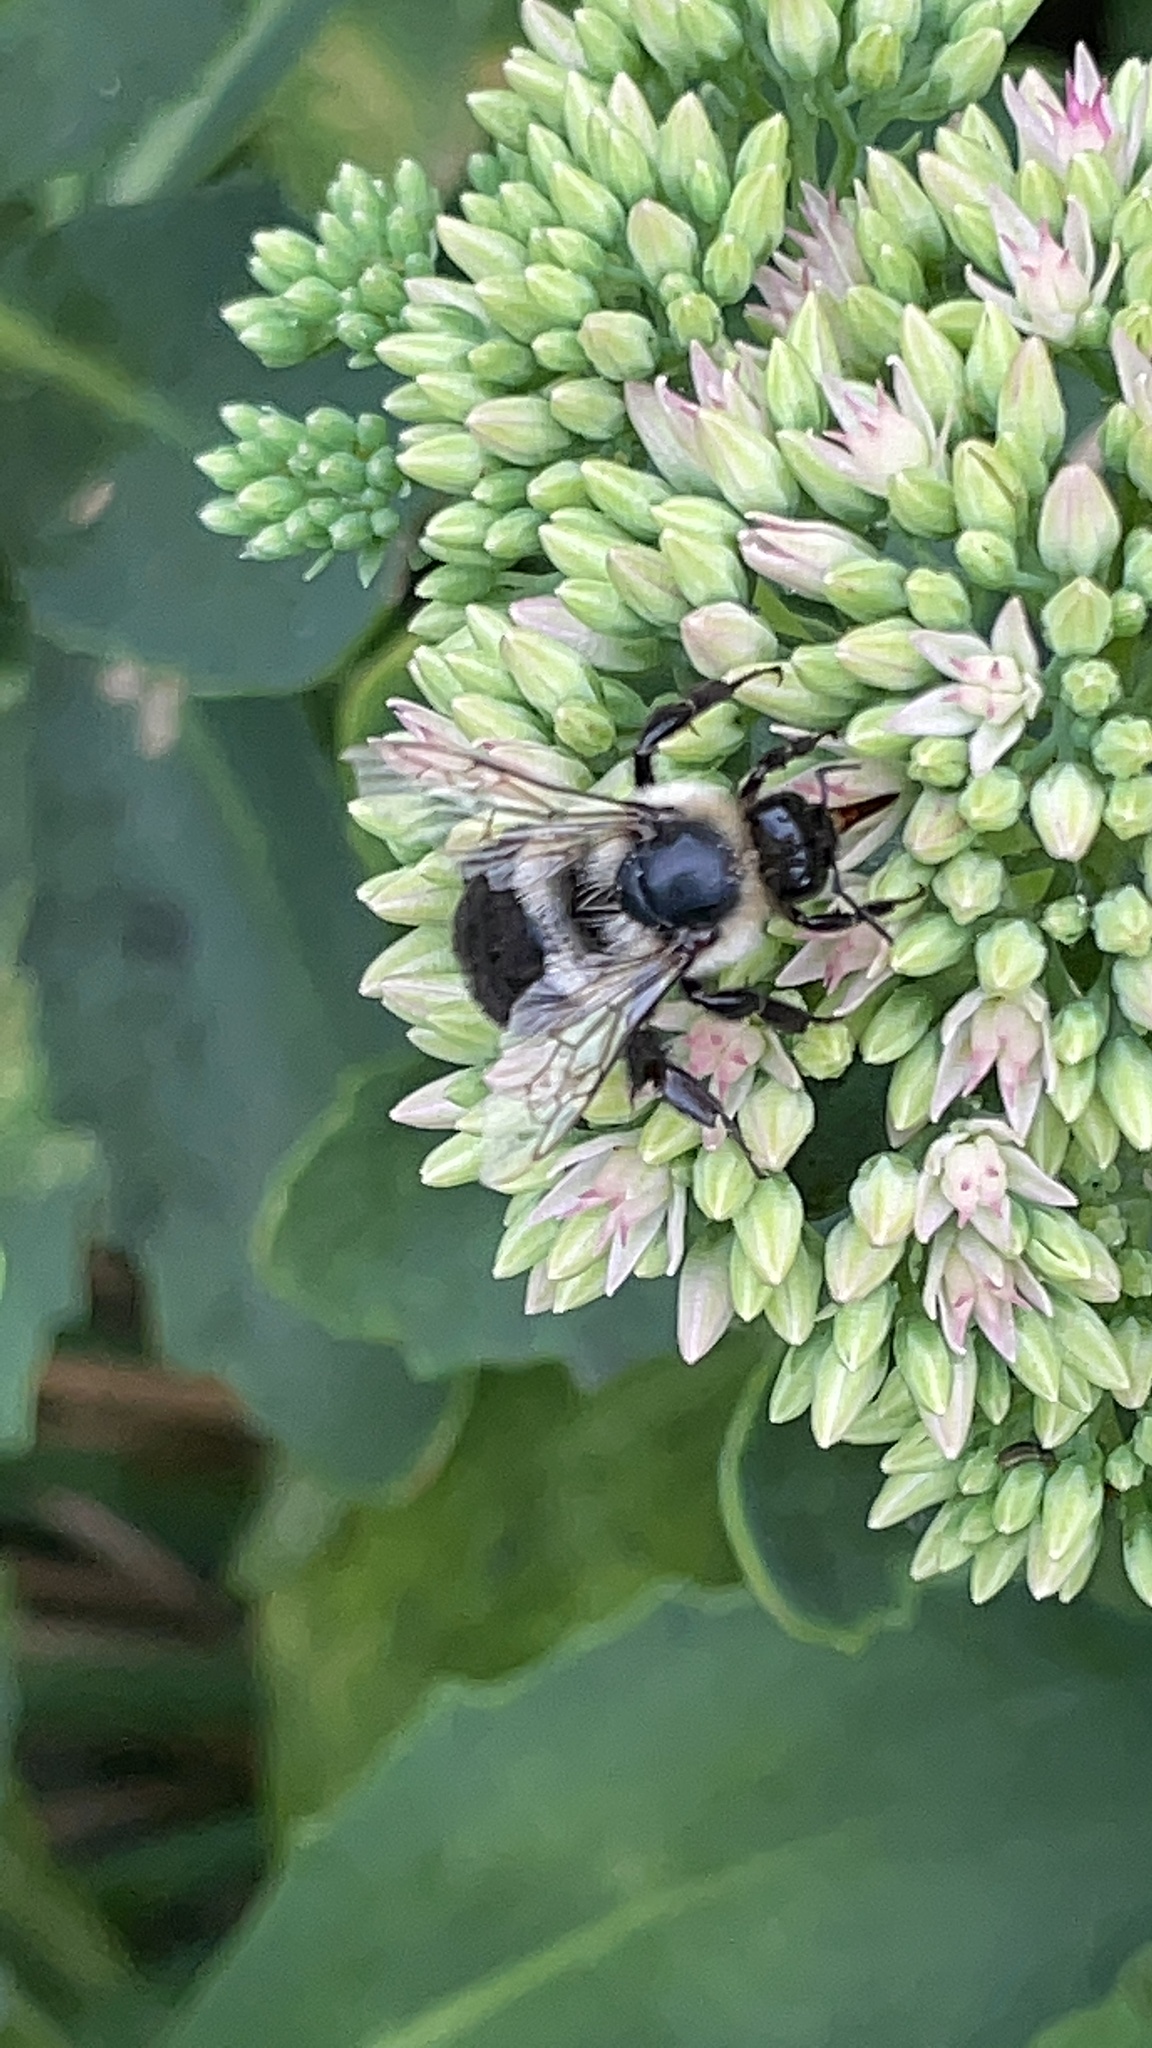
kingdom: Animalia
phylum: Arthropoda
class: Insecta
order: Hymenoptera
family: Apidae
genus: Bombus
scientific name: Bombus impatiens
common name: Common eastern bumble bee
